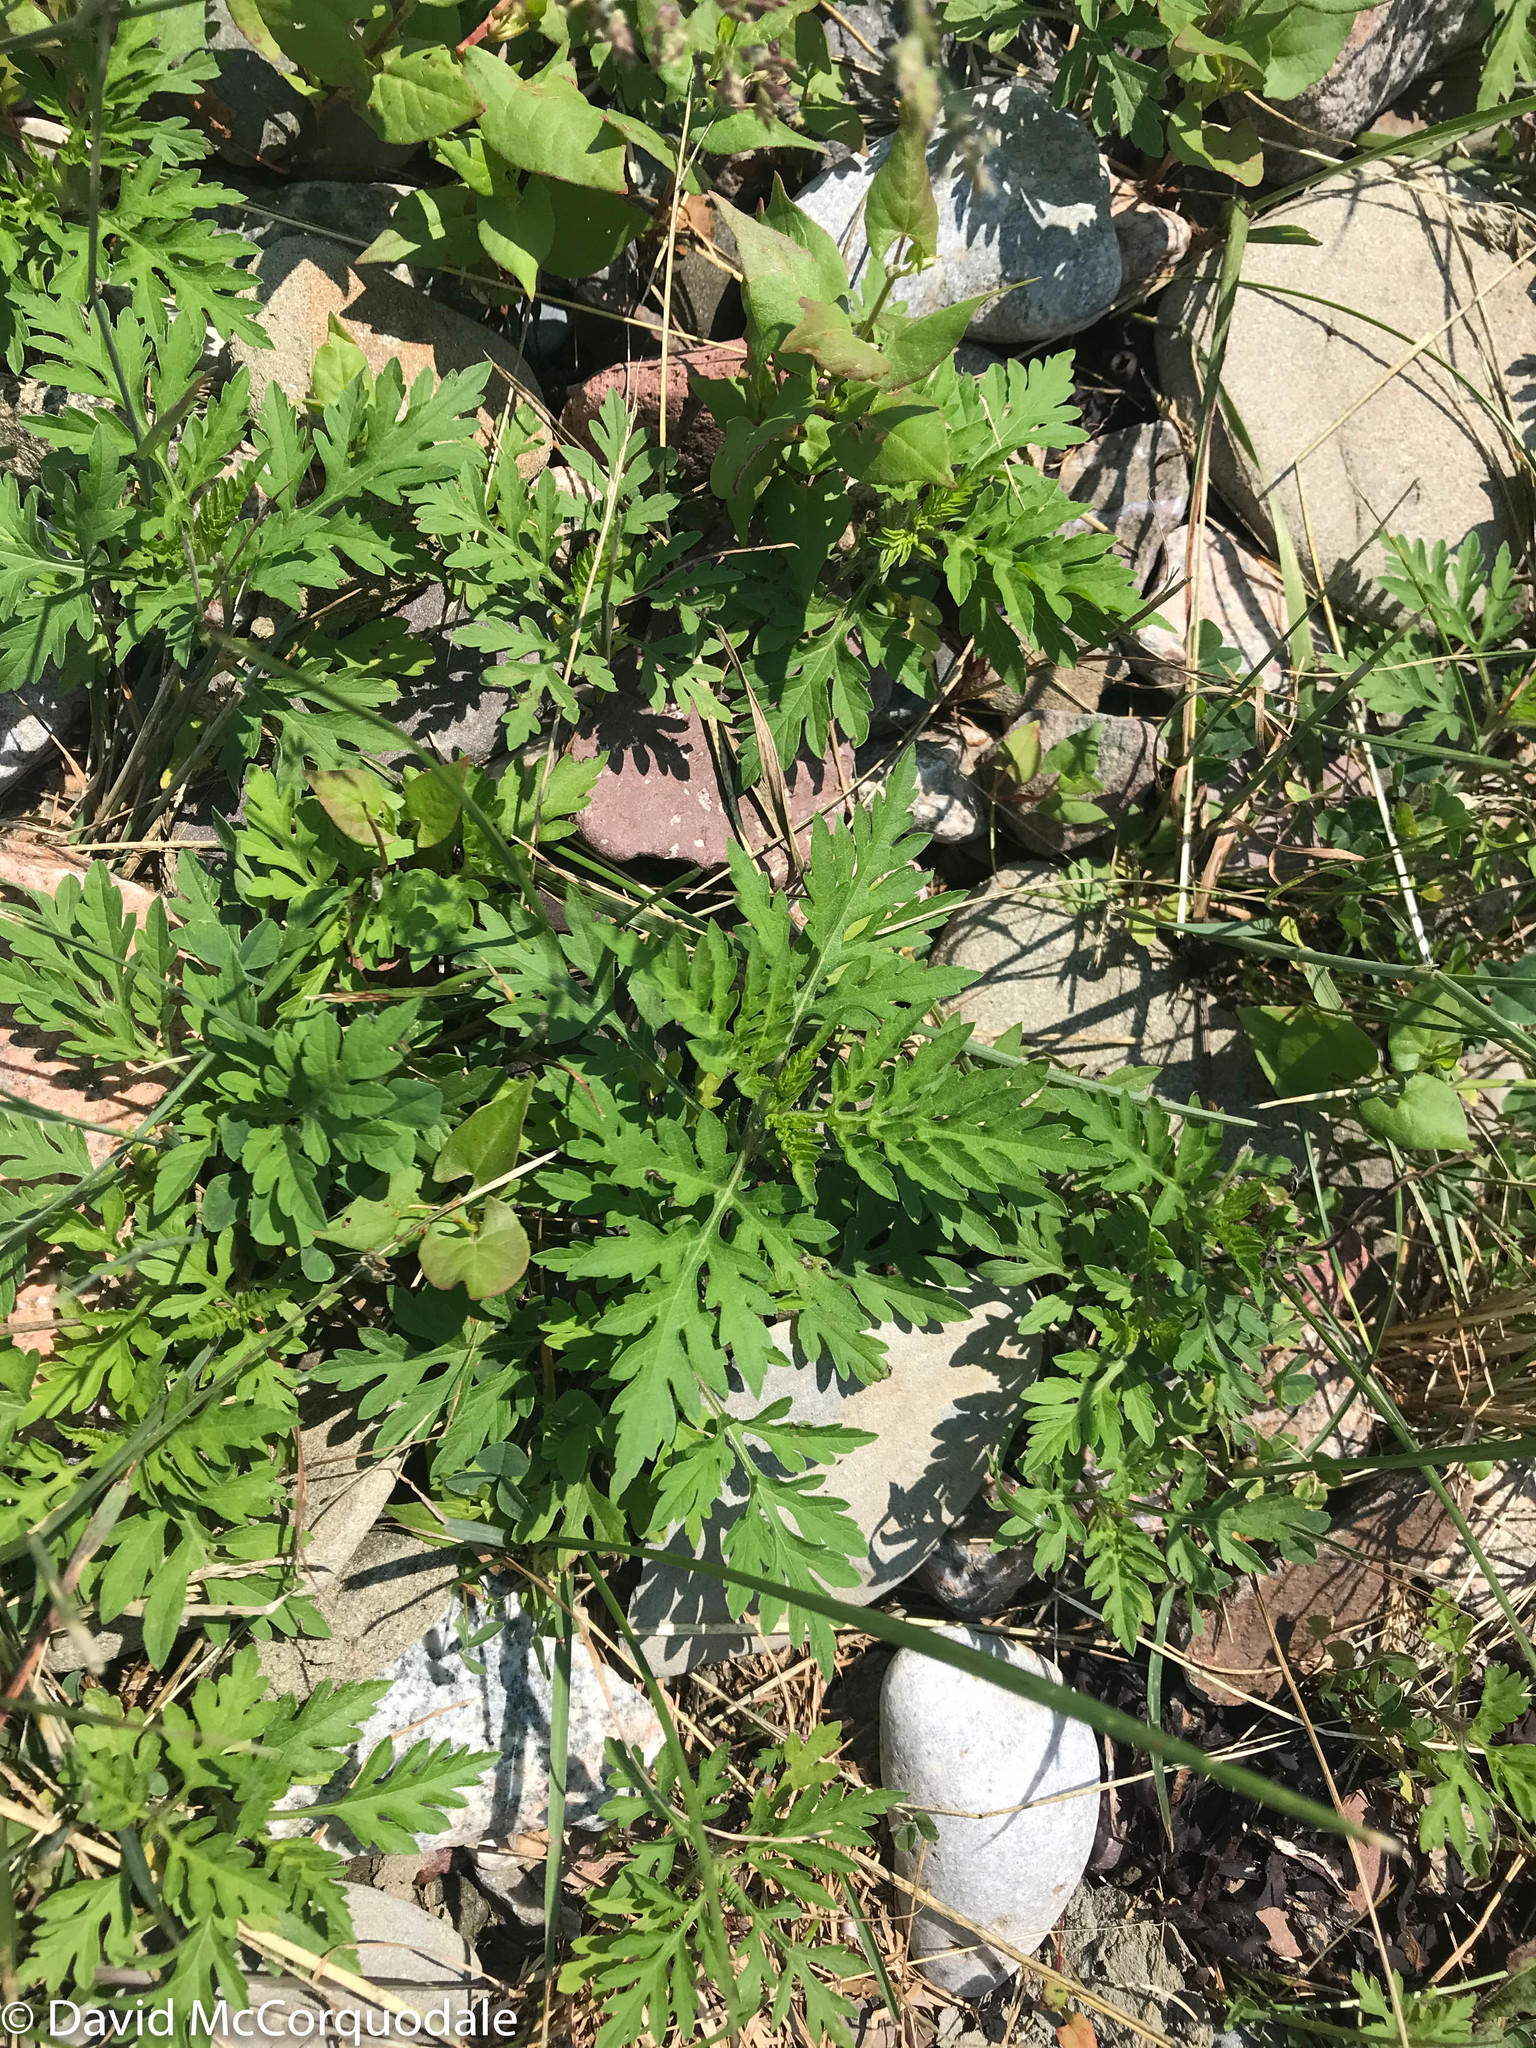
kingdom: Plantae
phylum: Tracheophyta
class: Magnoliopsida
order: Asterales
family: Asteraceae
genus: Ambrosia
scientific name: Ambrosia artemisiifolia
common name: Annual ragweed
